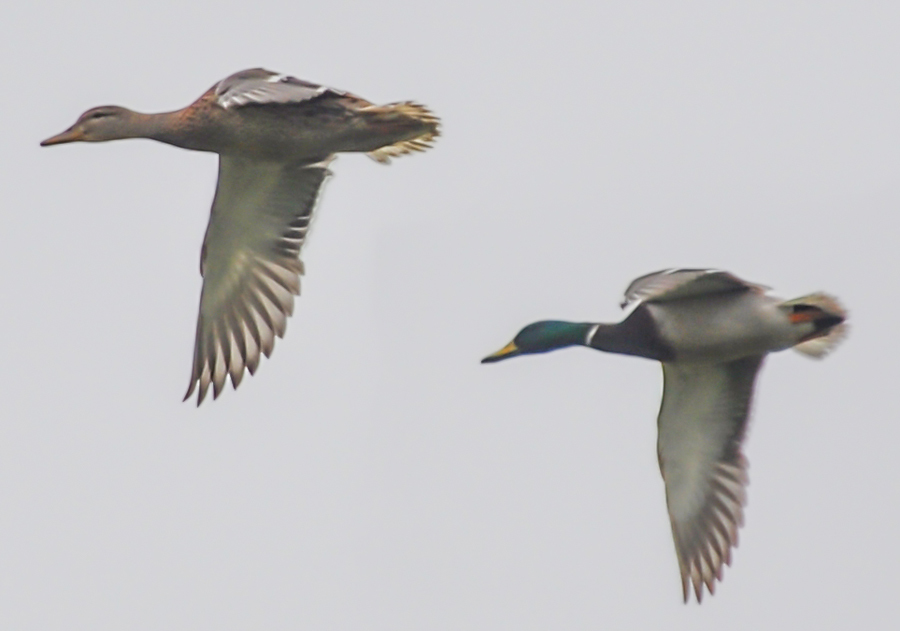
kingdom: Animalia
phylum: Chordata
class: Aves
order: Anseriformes
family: Anatidae
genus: Anas
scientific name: Anas platyrhynchos
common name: Mallard
